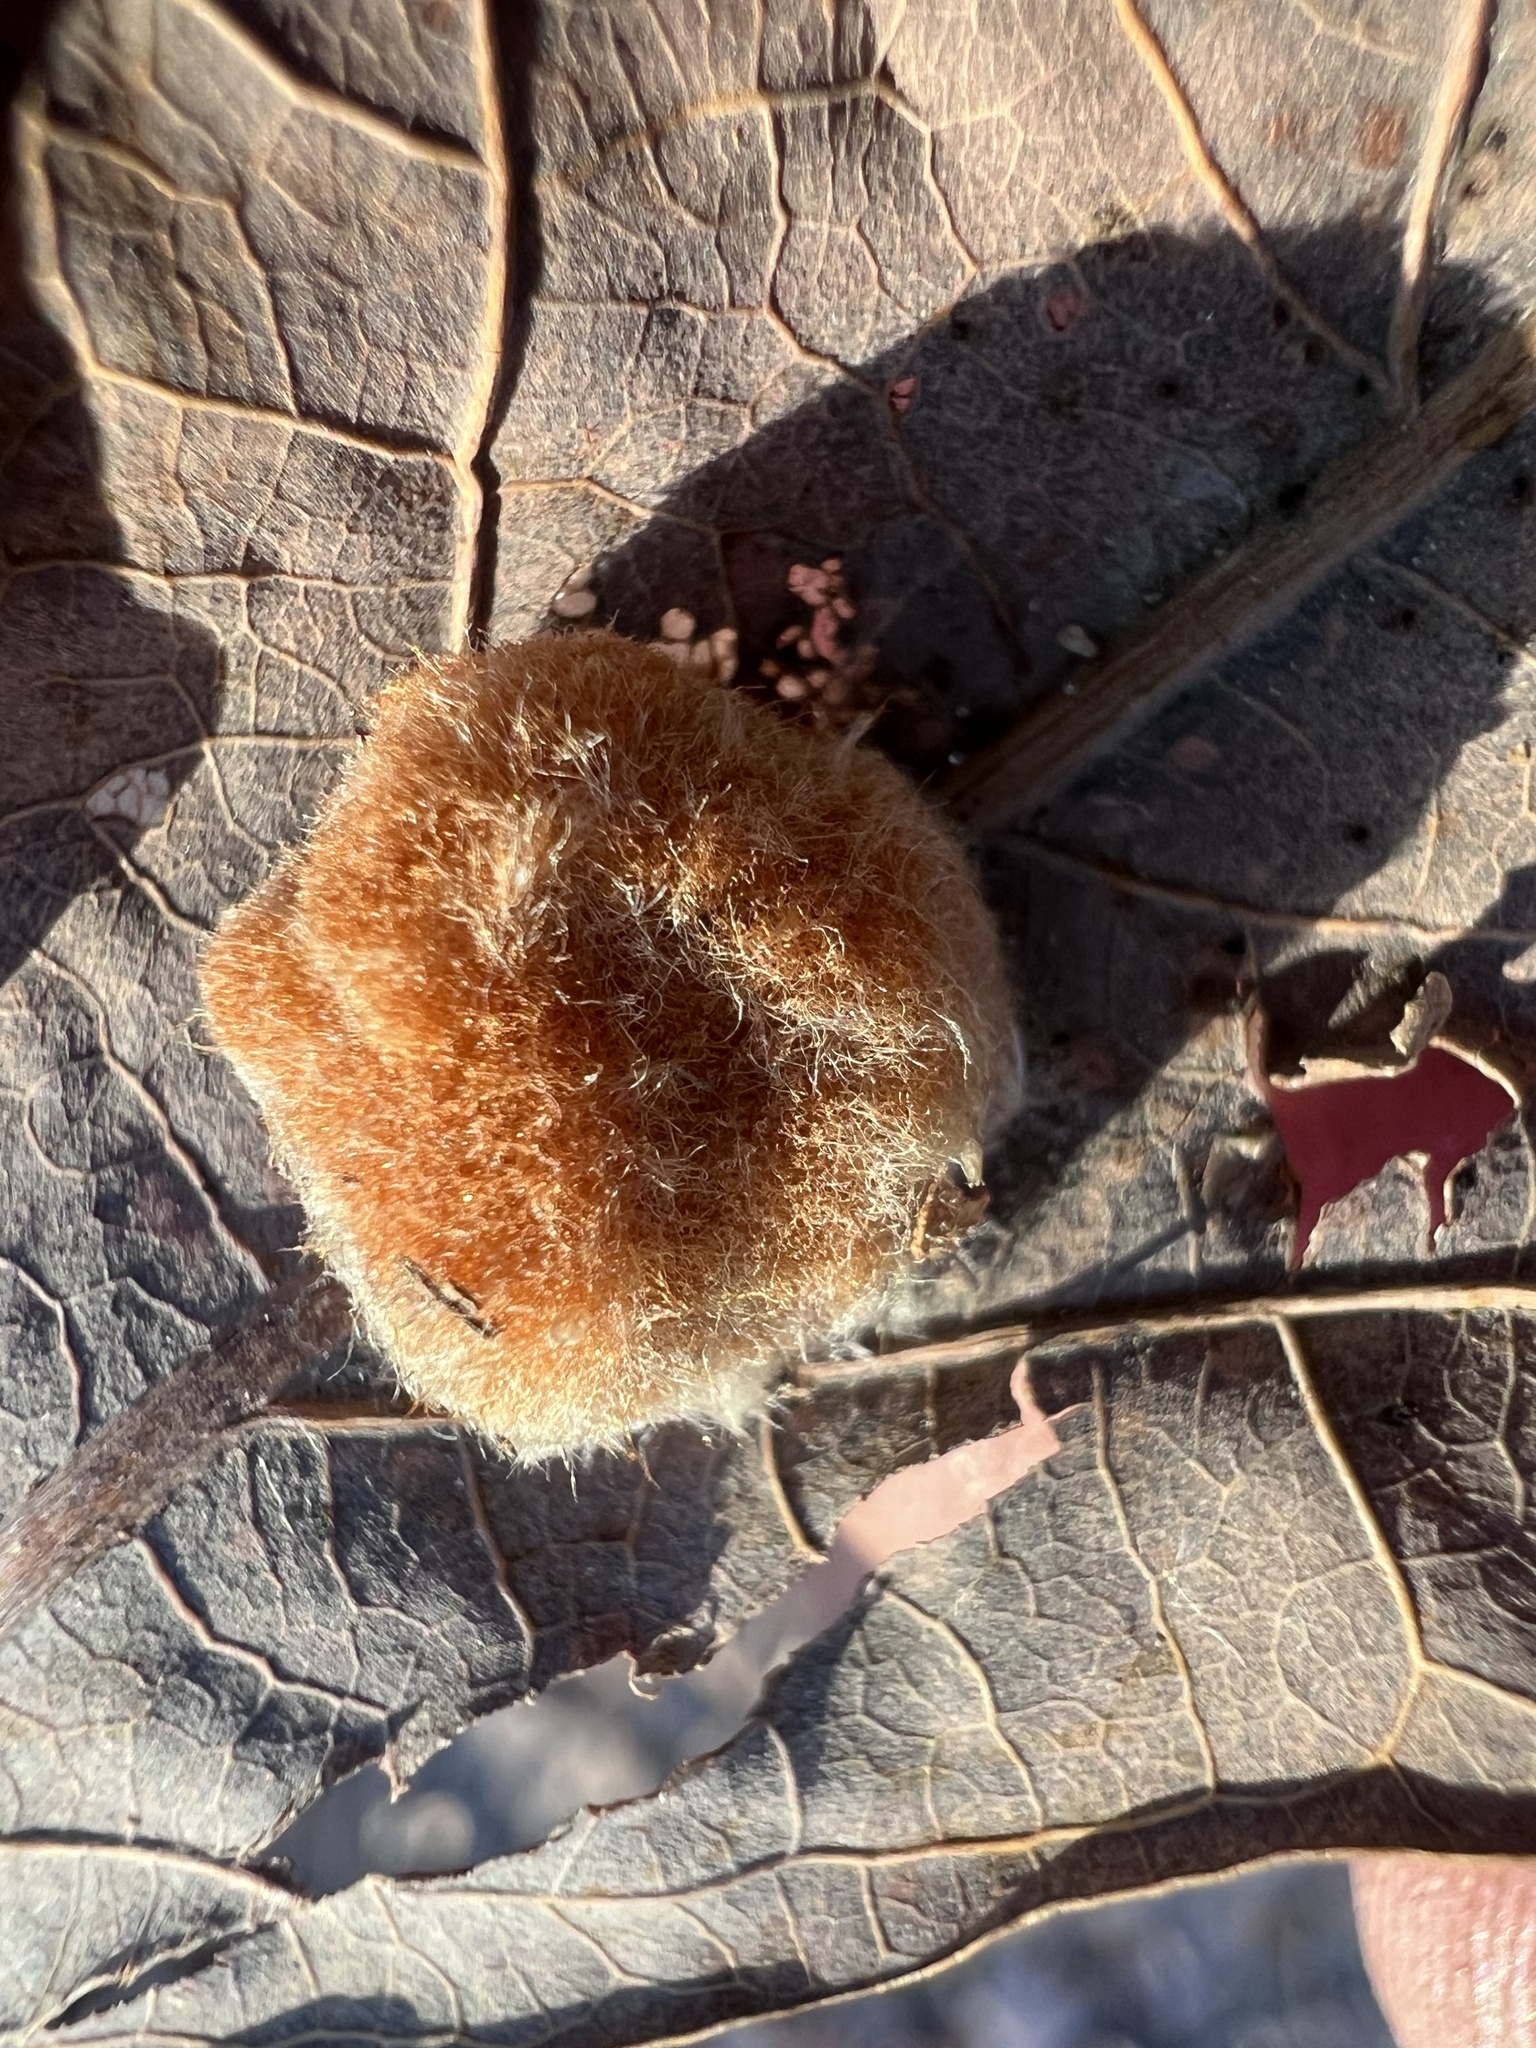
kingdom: Animalia
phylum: Arthropoda
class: Insecta
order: Hymenoptera
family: Cynipidae
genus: Andricus
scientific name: Andricus quercusflocci
